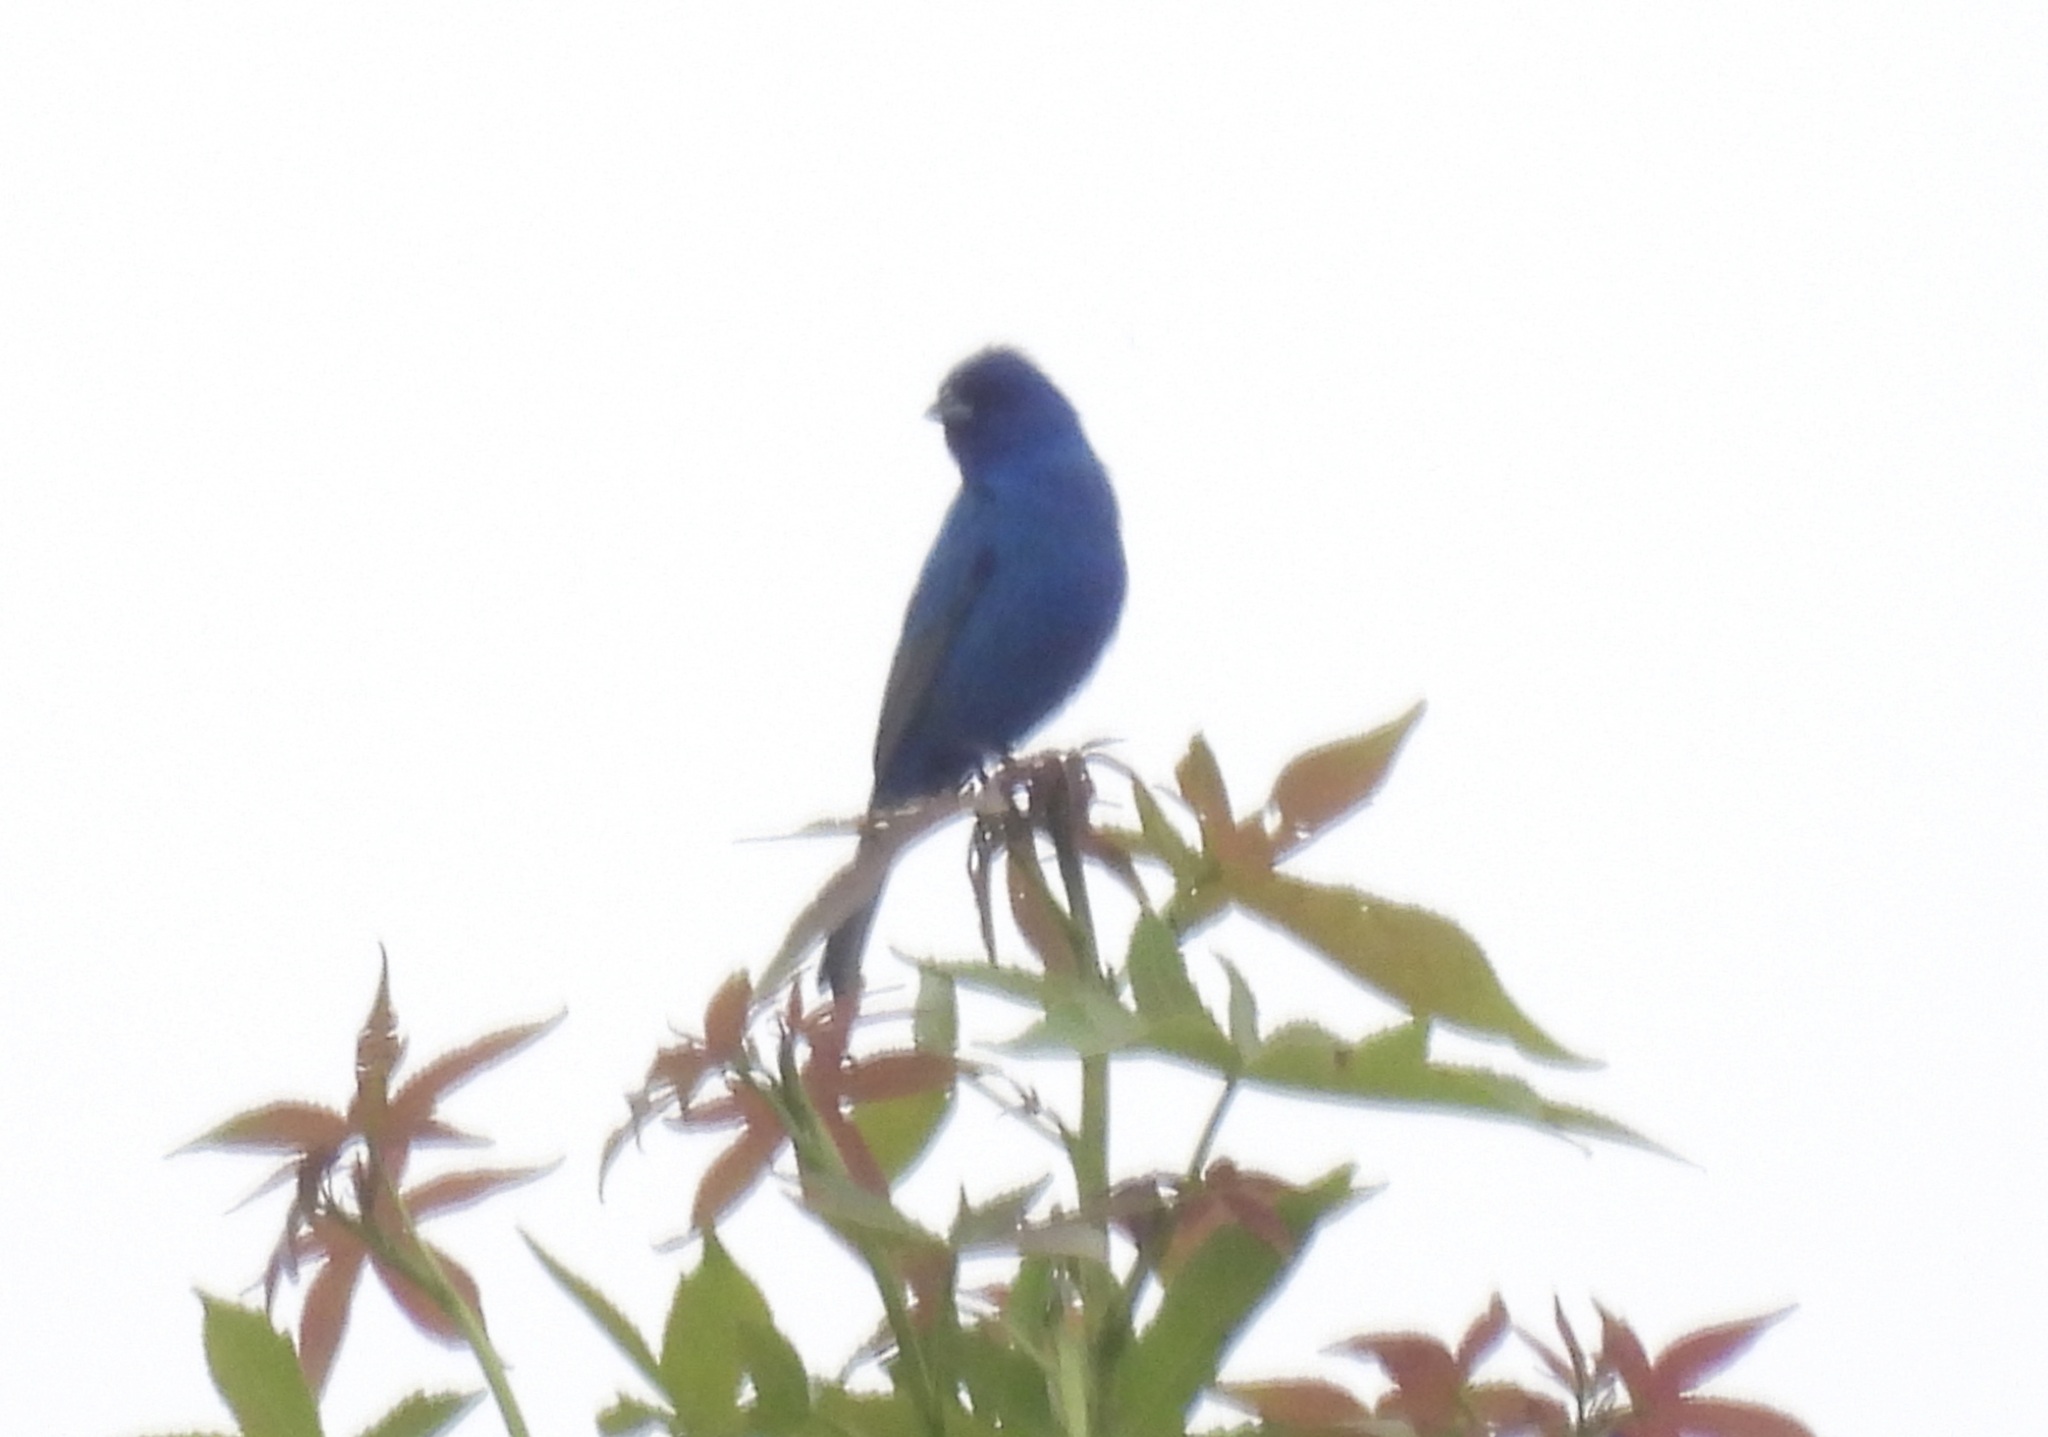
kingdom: Animalia
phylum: Chordata
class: Aves
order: Passeriformes
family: Cardinalidae
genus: Passerina
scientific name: Passerina cyanea
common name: Indigo bunting
